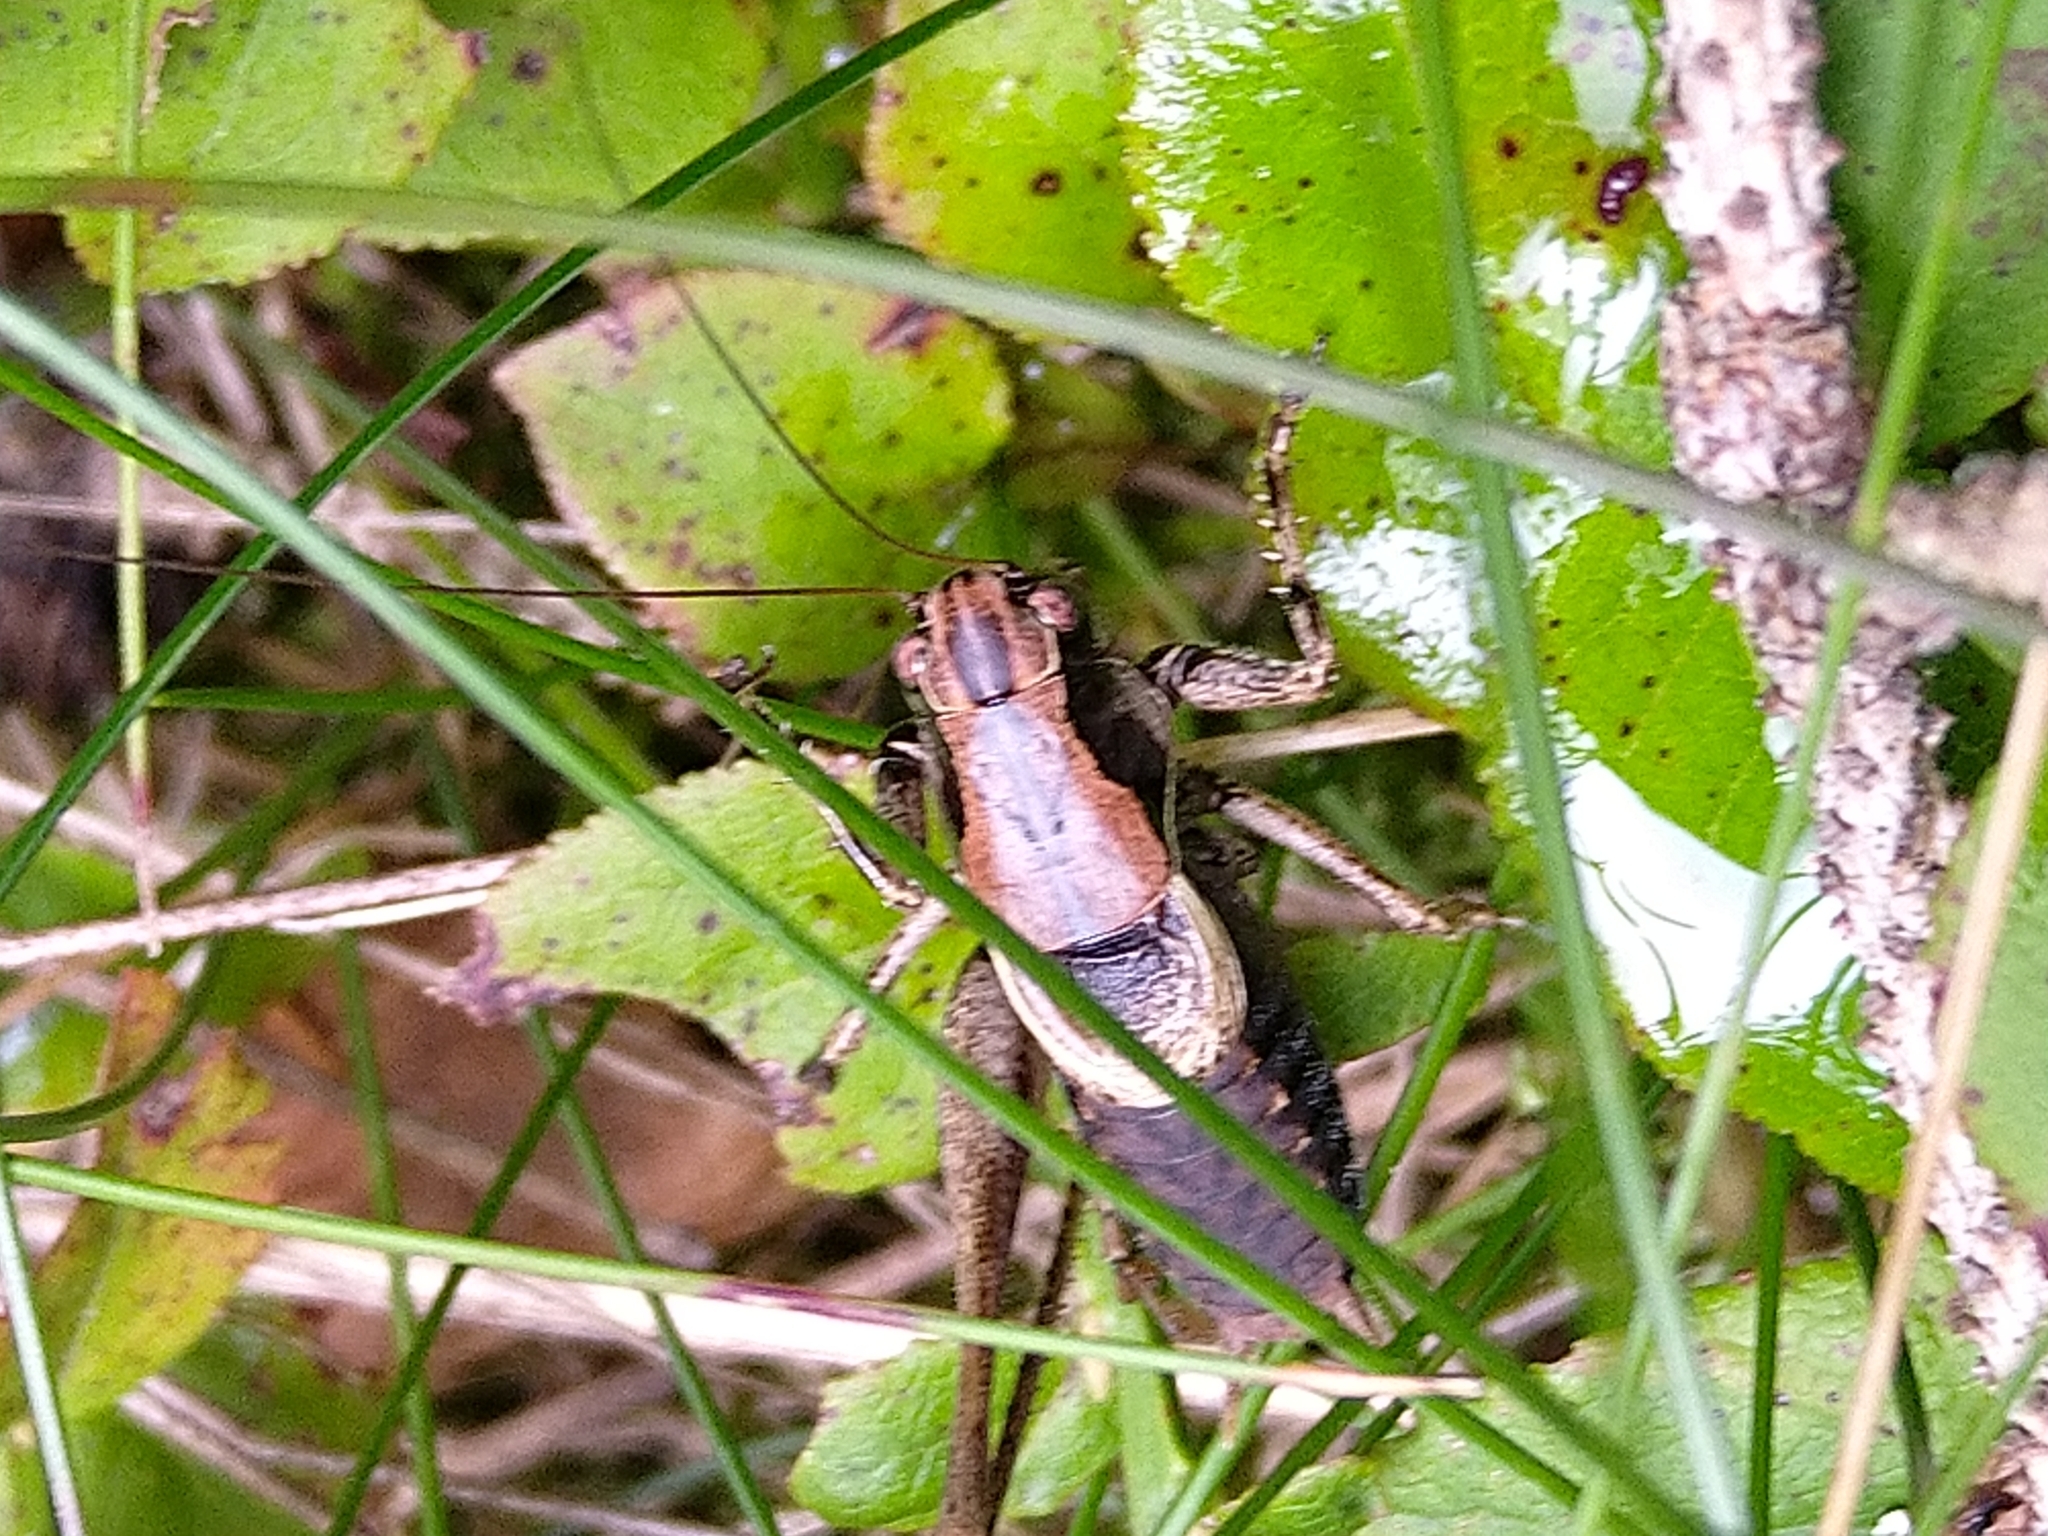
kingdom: Animalia
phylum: Arthropoda
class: Insecta
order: Orthoptera
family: Tettigoniidae
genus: Pholidoptera
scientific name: Pholidoptera griseoaptera
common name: Dark bush-cricket
